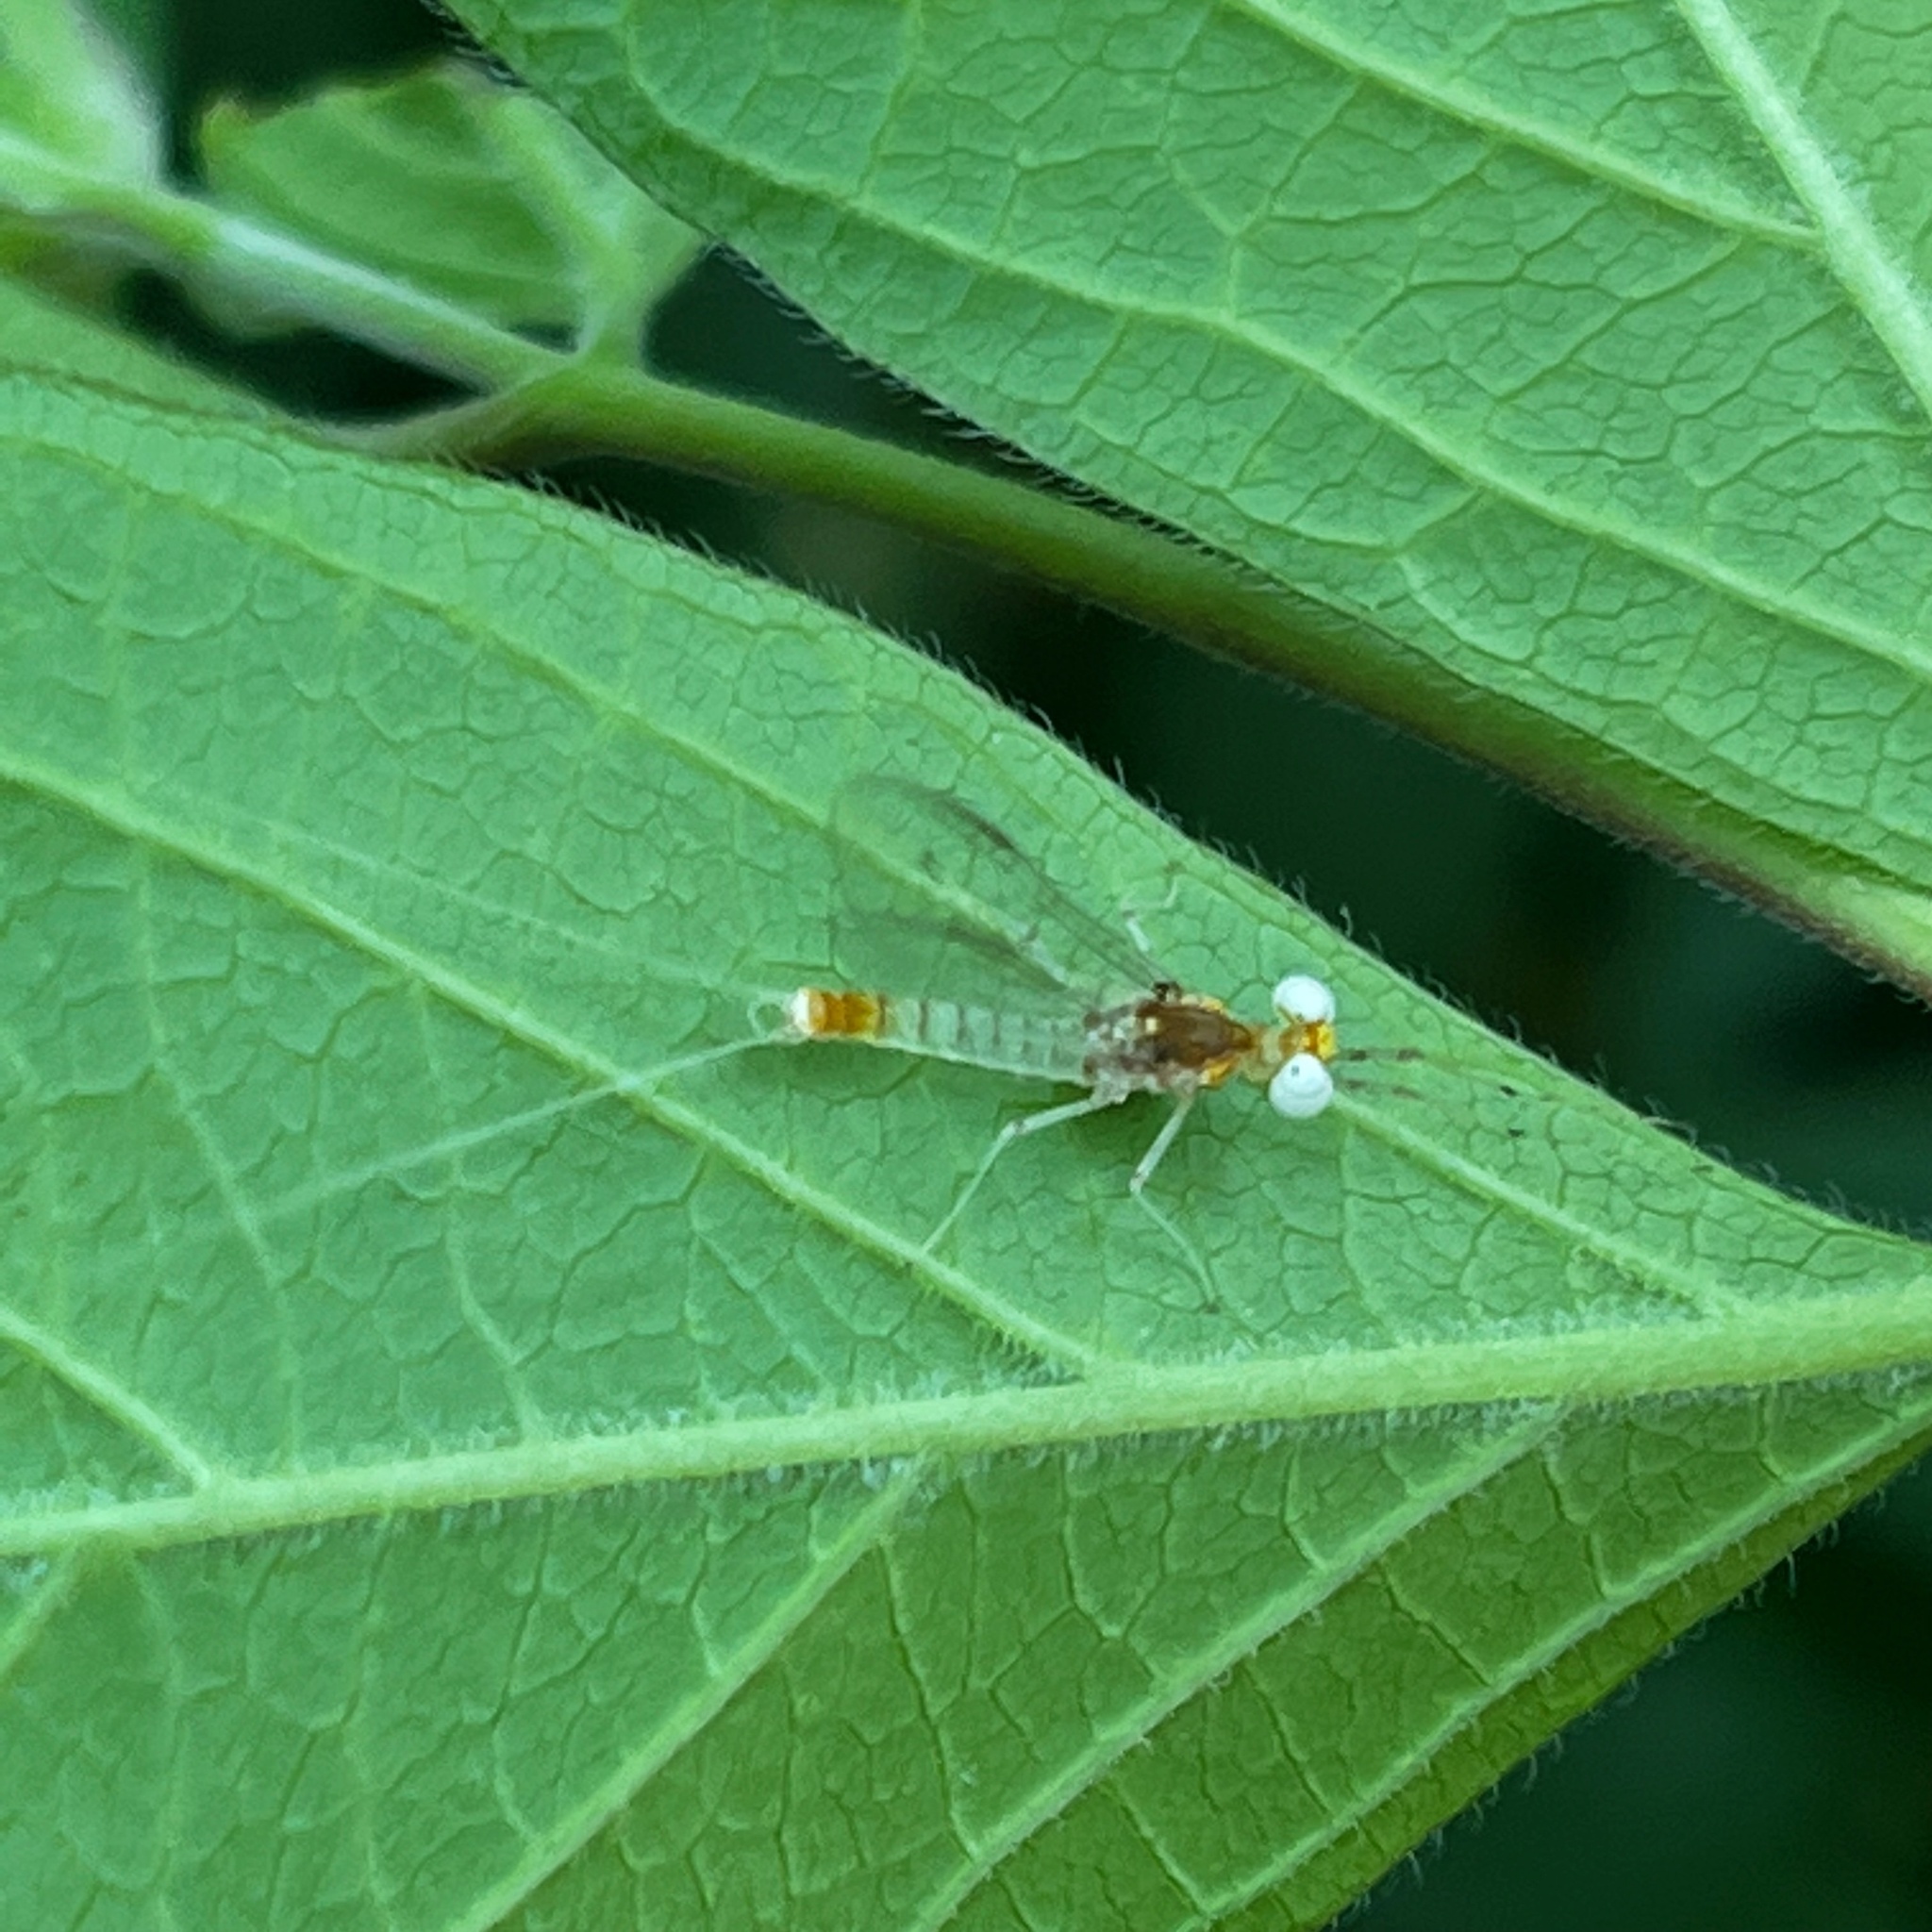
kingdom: Animalia
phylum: Arthropoda
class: Insecta
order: Ephemeroptera
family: Heptageniidae
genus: Maccaffertium
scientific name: Maccaffertium terminatum
